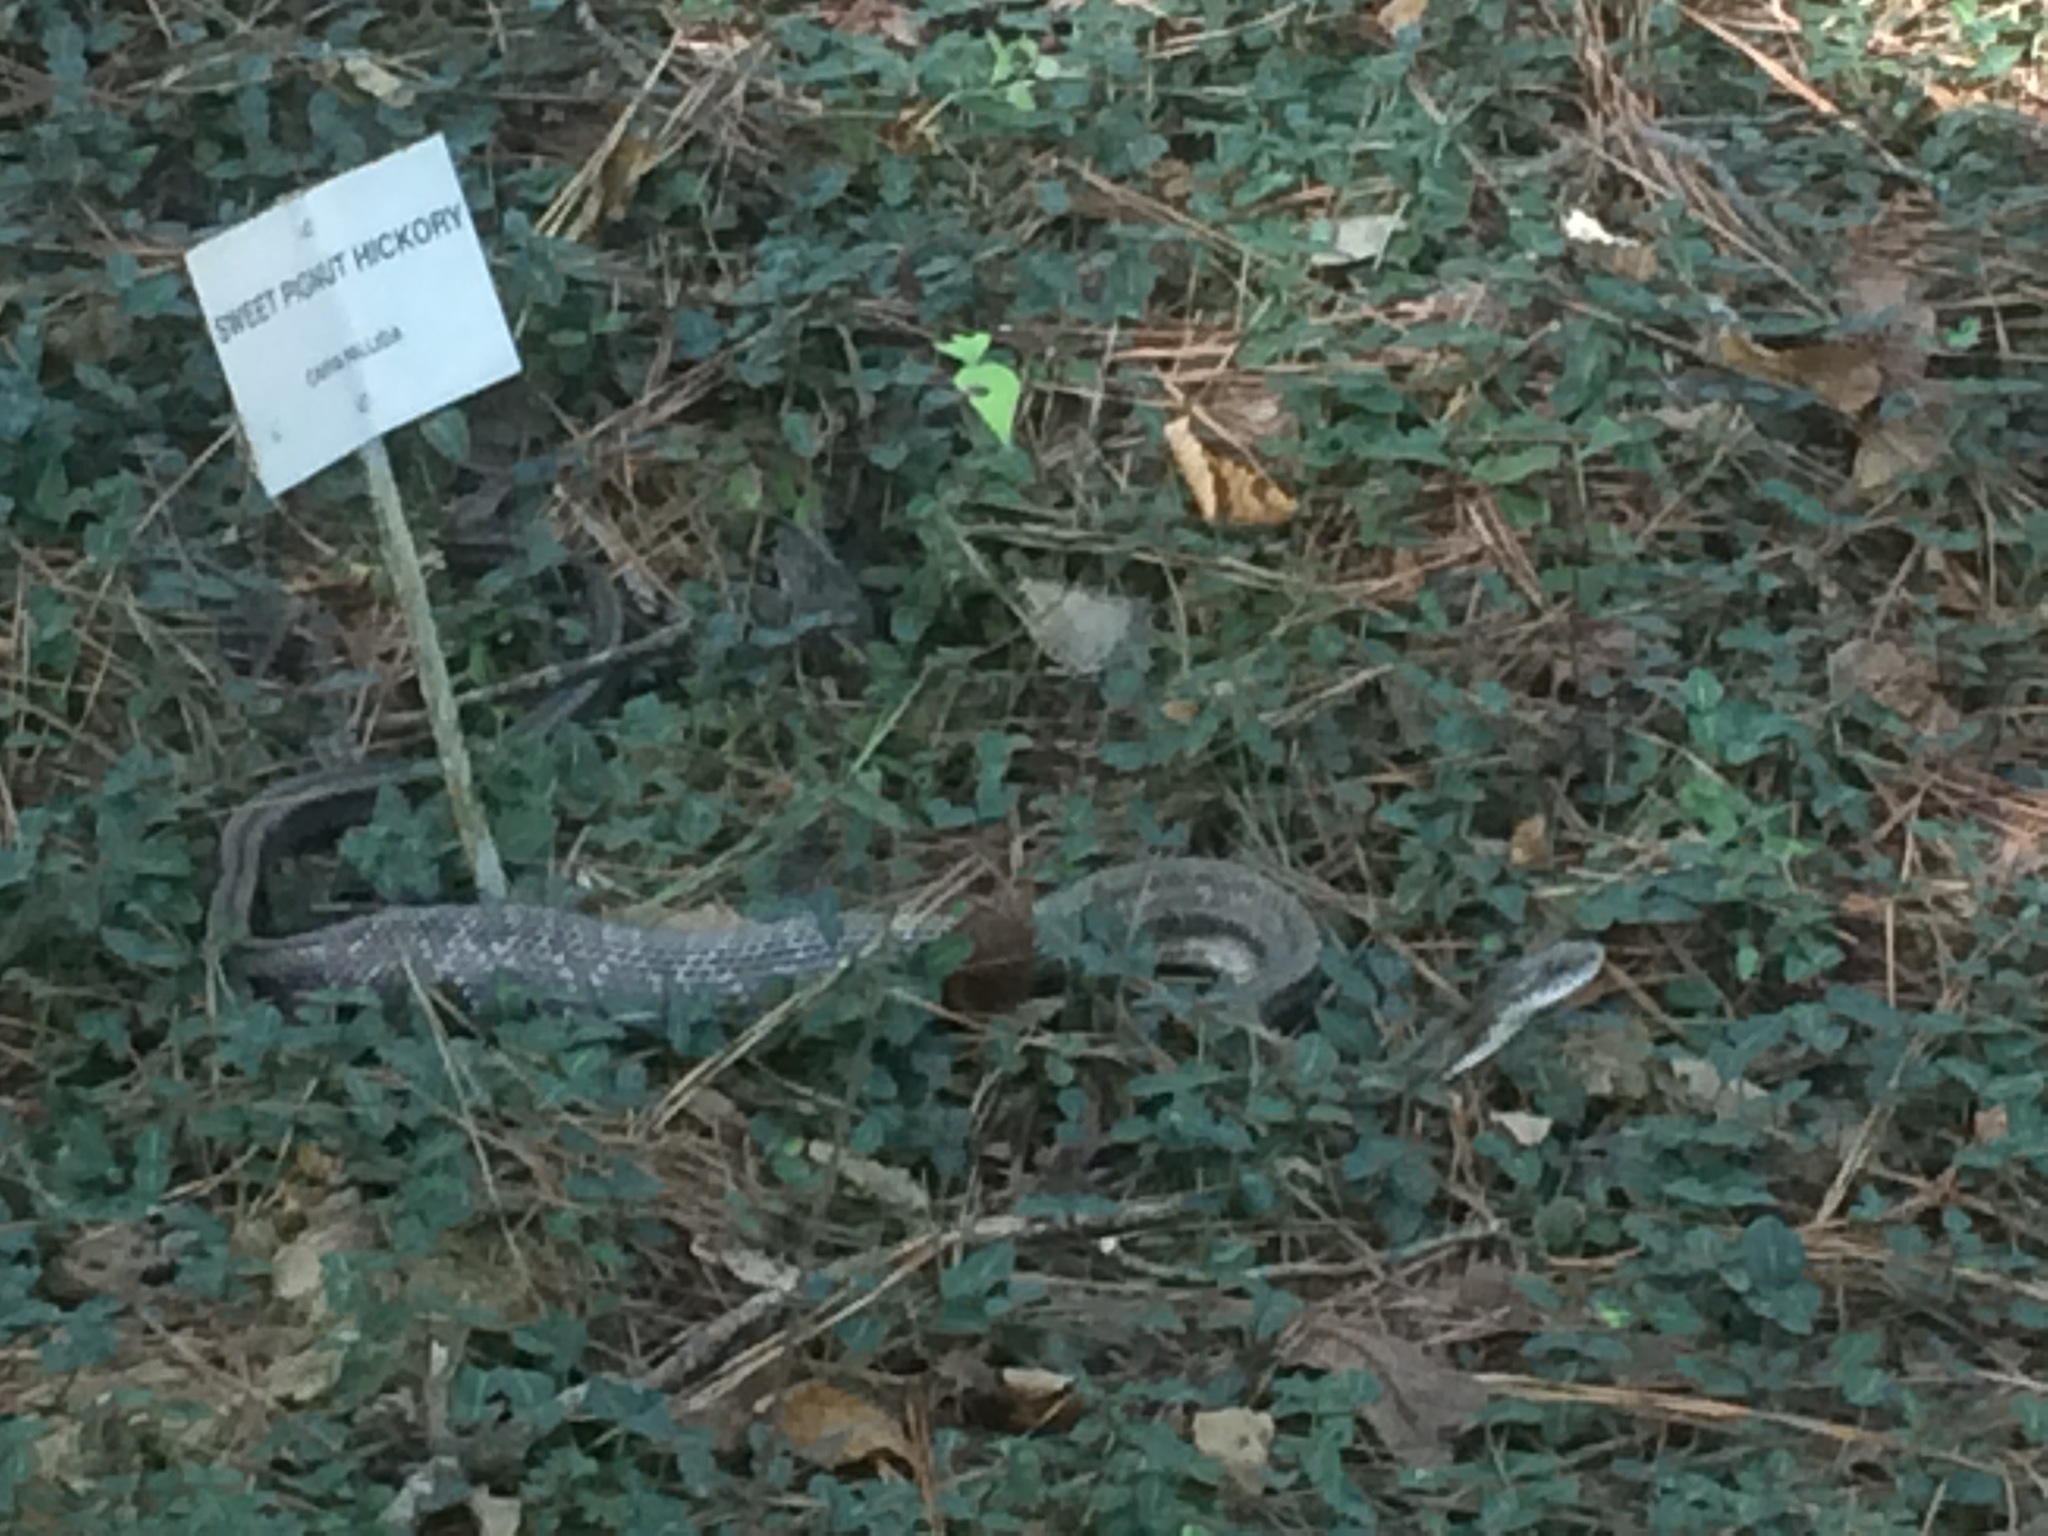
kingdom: Animalia
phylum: Chordata
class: Squamata
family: Colubridae
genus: Pantherophis
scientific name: Pantherophis alleghaniensis
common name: Eastern rat snake
